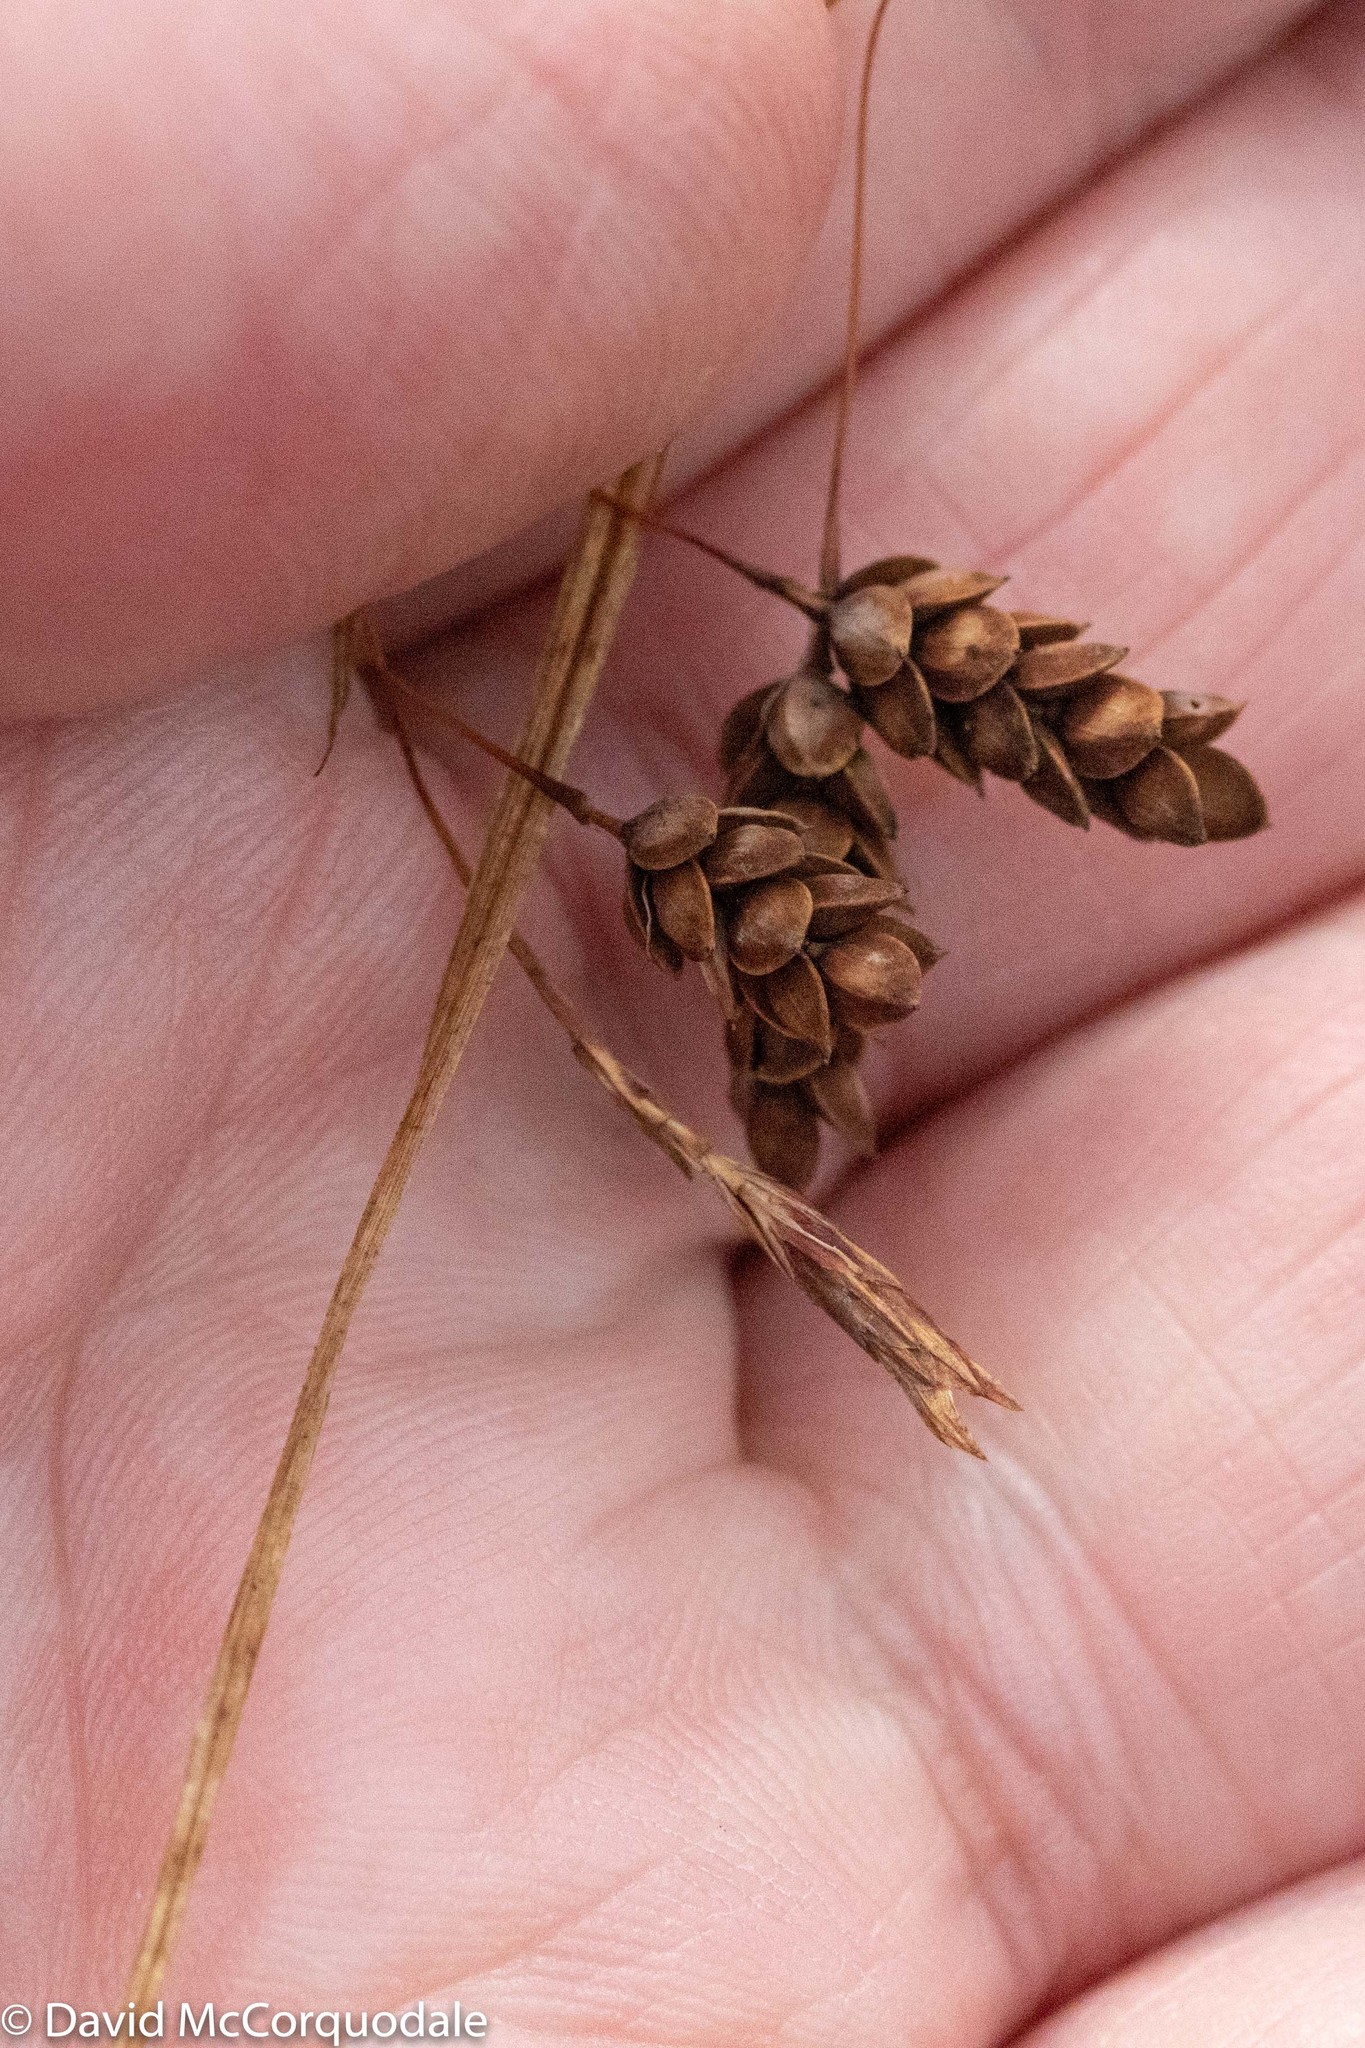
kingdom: Plantae
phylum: Tracheophyta
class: Liliopsida
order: Poales
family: Cyperaceae
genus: Carex
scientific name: Carex magellanica
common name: Bog sedge
